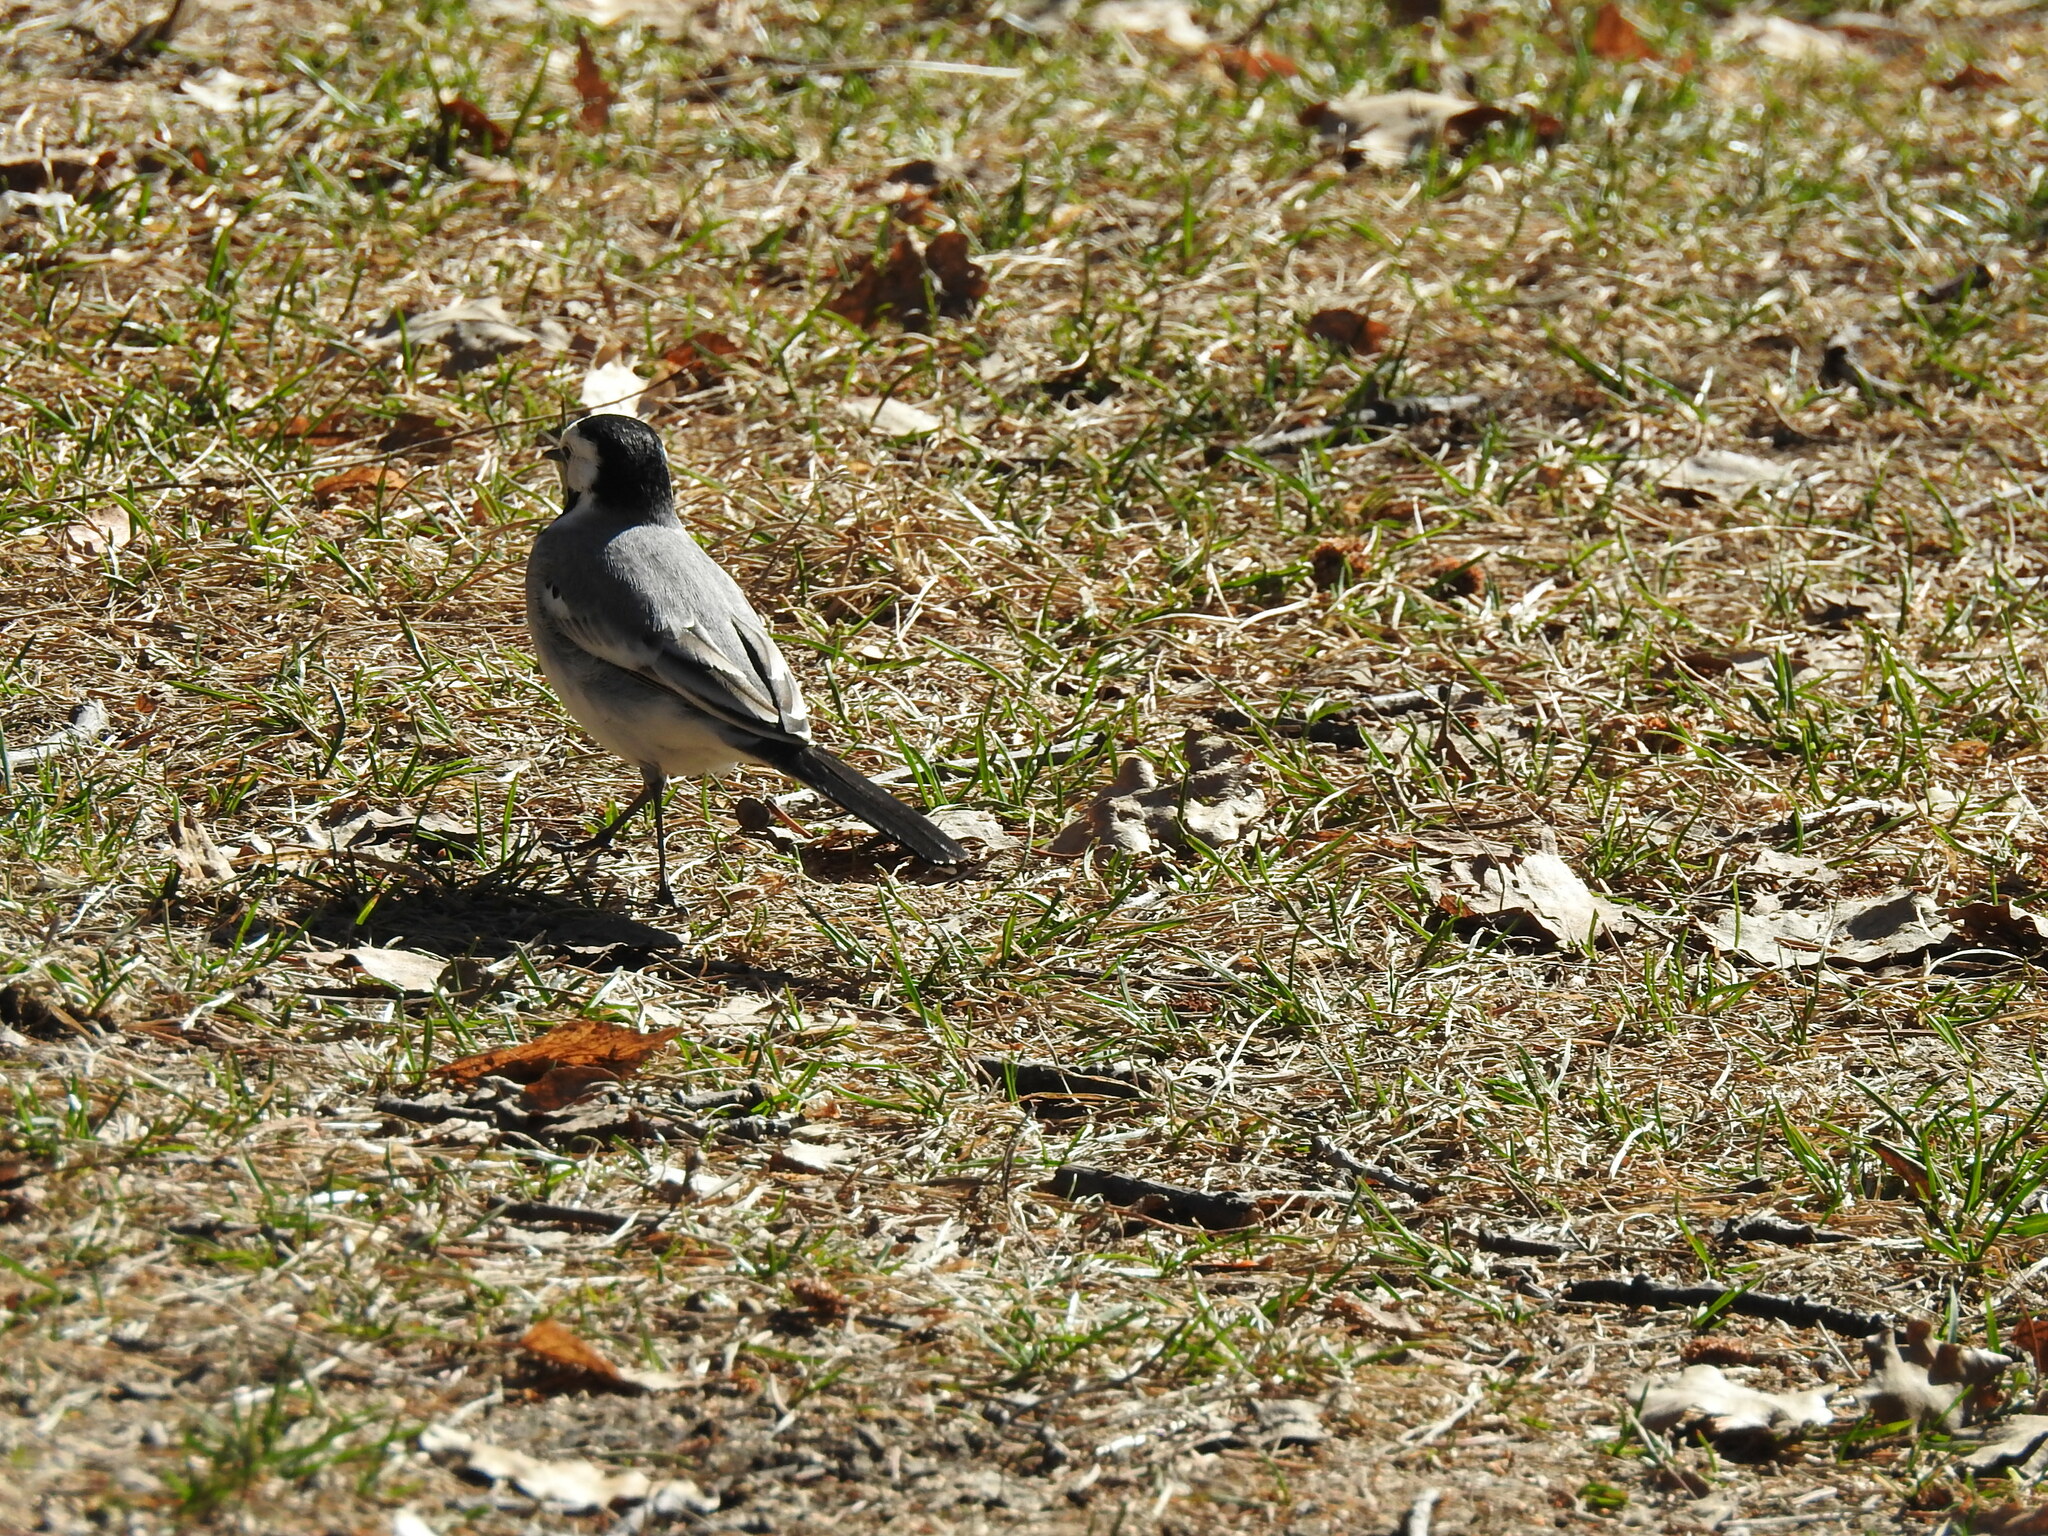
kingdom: Animalia
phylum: Chordata
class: Aves
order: Passeriformes
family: Motacillidae
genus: Motacilla
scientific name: Motacilla alba
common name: White wagtail
